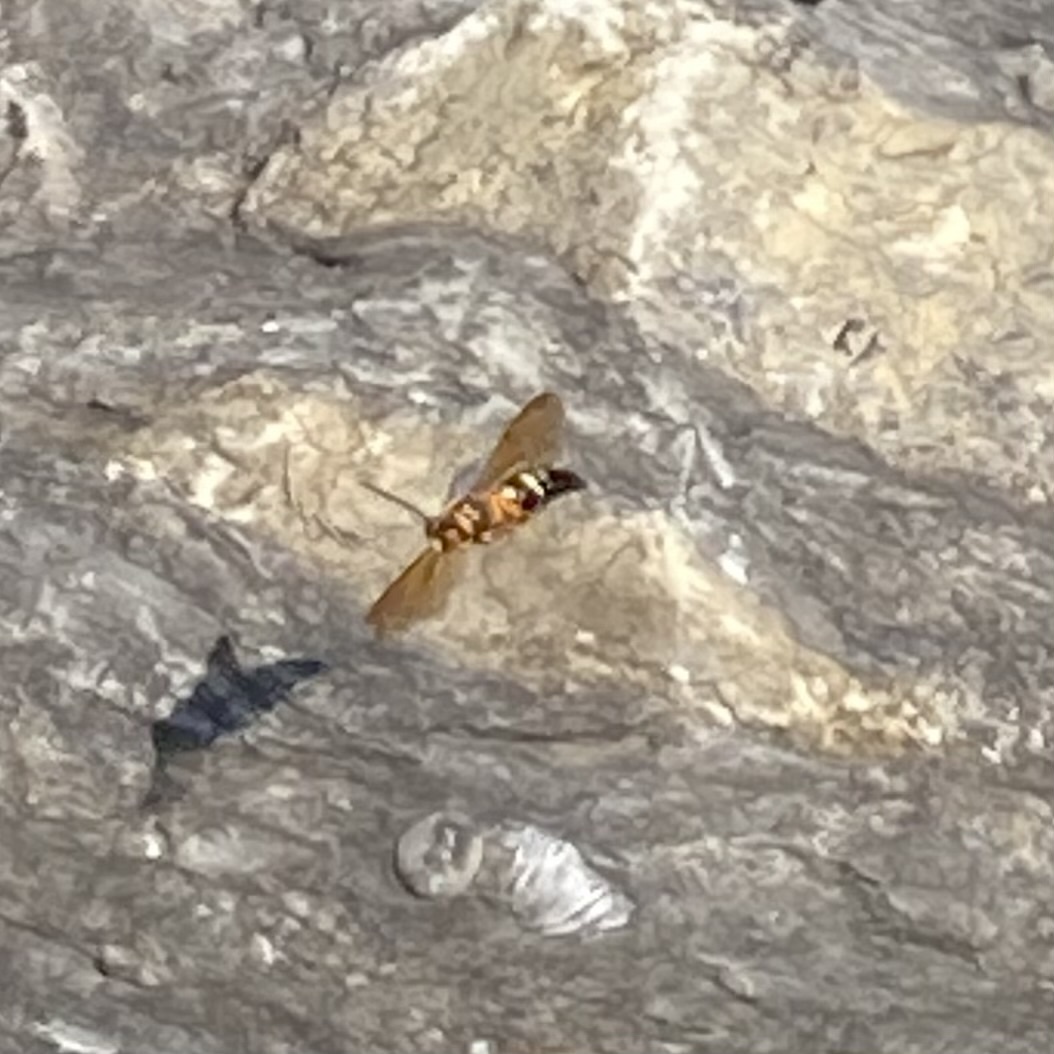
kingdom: Animalia
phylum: Arthropoda
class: Insecta
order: Hymenoptera
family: Crabronidae
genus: Sphecius
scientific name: Sphecius speciosus
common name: Cicada killer
